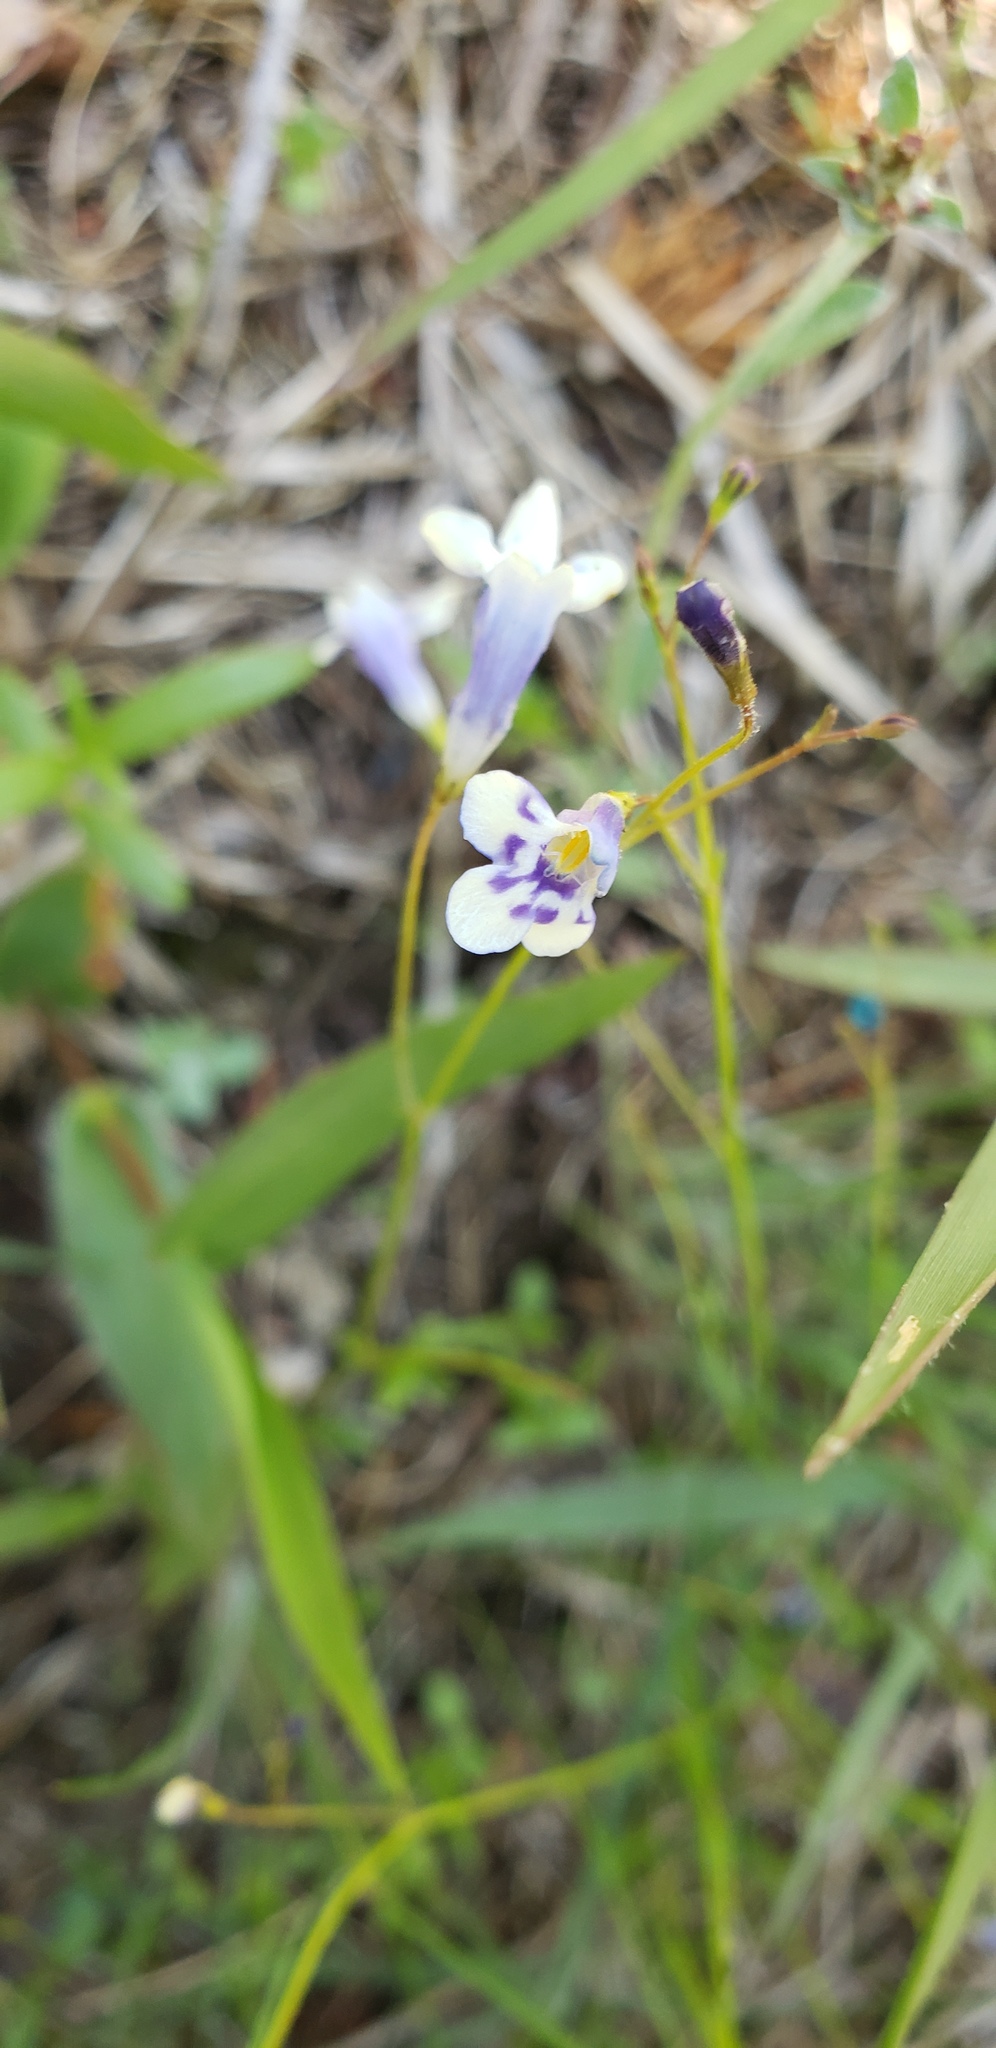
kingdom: Plantae
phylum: Tracheophyta
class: Magnoliopsida
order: Lamiales
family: Linderniaceae
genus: Lindernia
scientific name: Lindernia monticola
